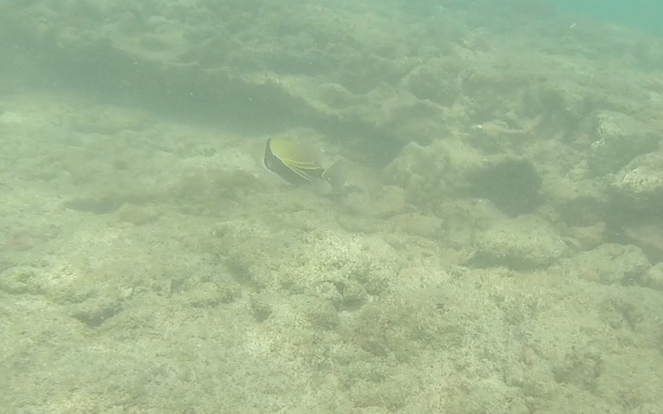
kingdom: Animalia
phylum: Chordata
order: Tetraodontiformes
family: Balistidae
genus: Rhinecanthus
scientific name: Rhinecanthus rectangulus
